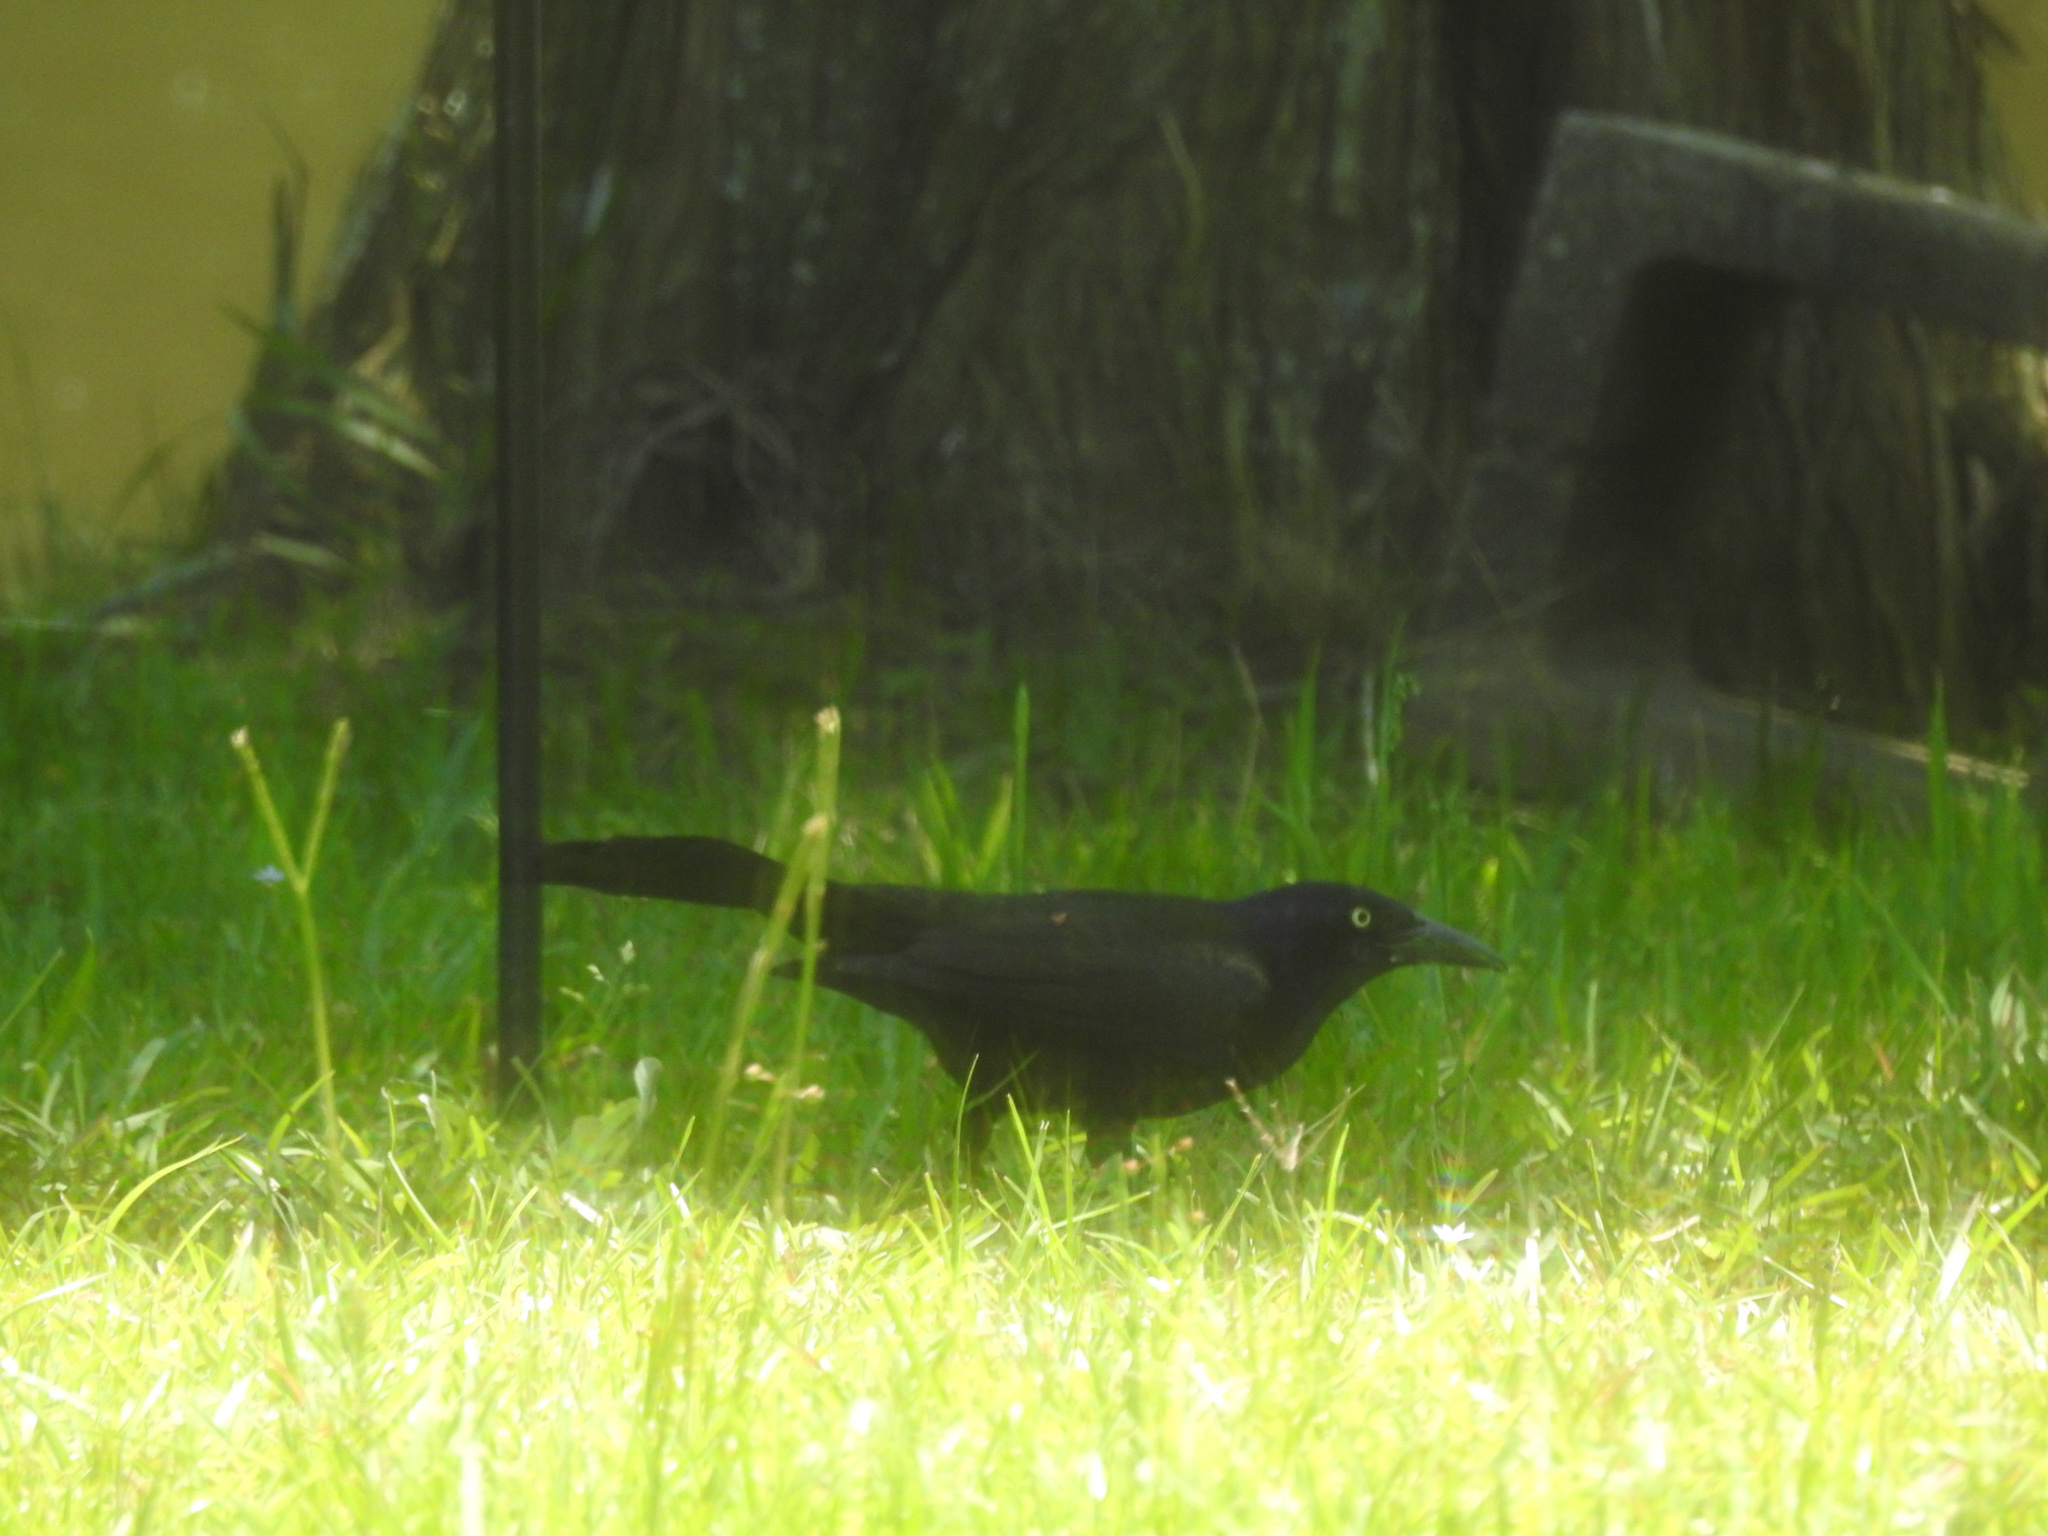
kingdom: Animalia
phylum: Chordata
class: Aves
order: Passeriformes
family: Icteridae
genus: Quiscalus
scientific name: Quiscalus quiscula
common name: Common grackle
